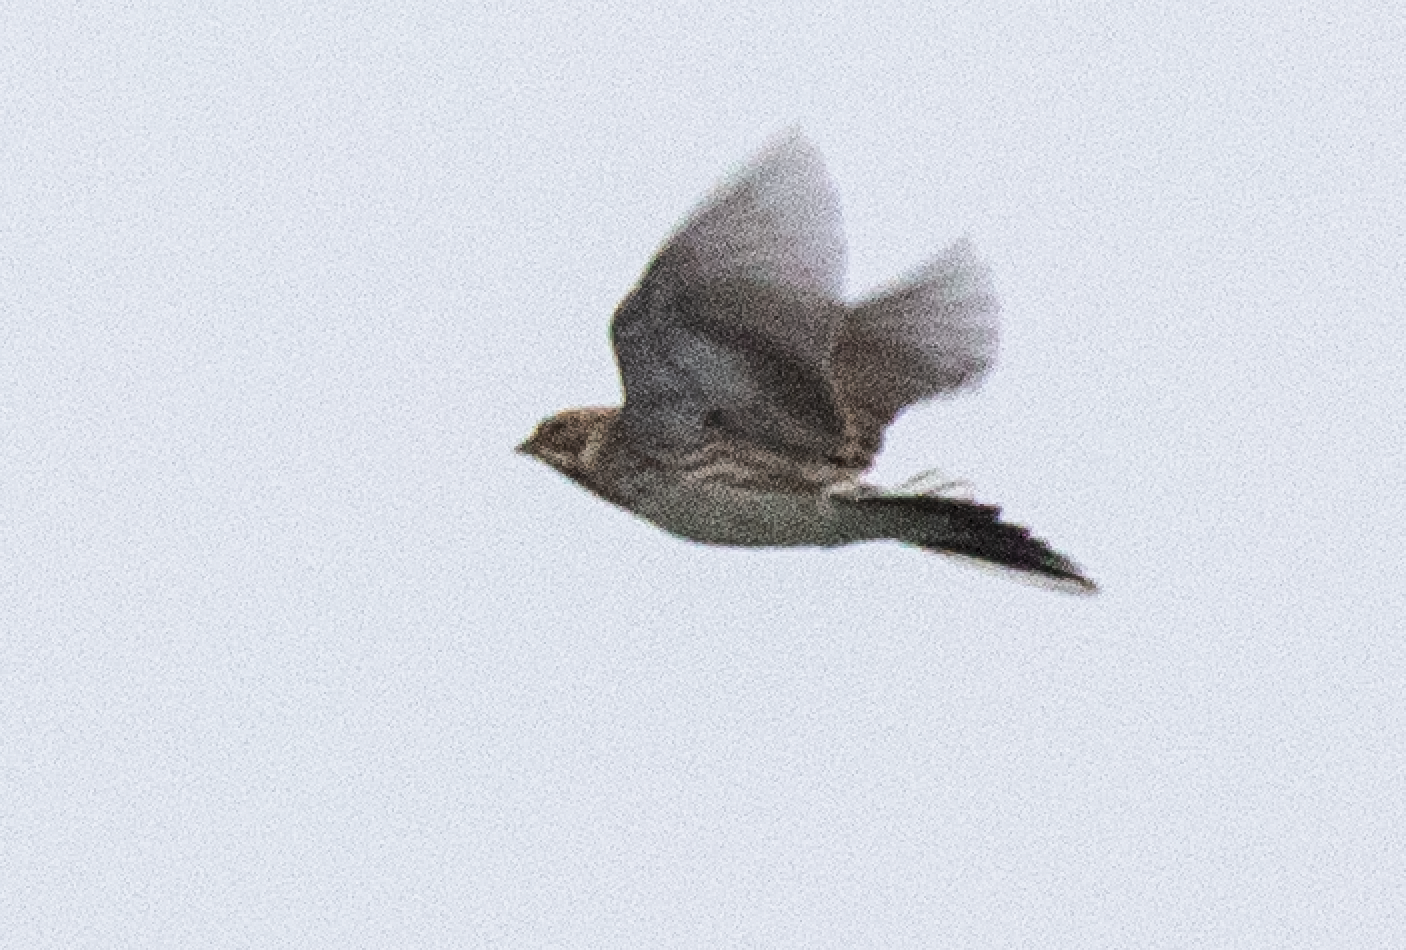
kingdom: Animalia
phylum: Chordata
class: Aves
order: Passeriformes
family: Emberizidae
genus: Emberiza
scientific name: Emberiza schoeniclus
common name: Reed bunting
